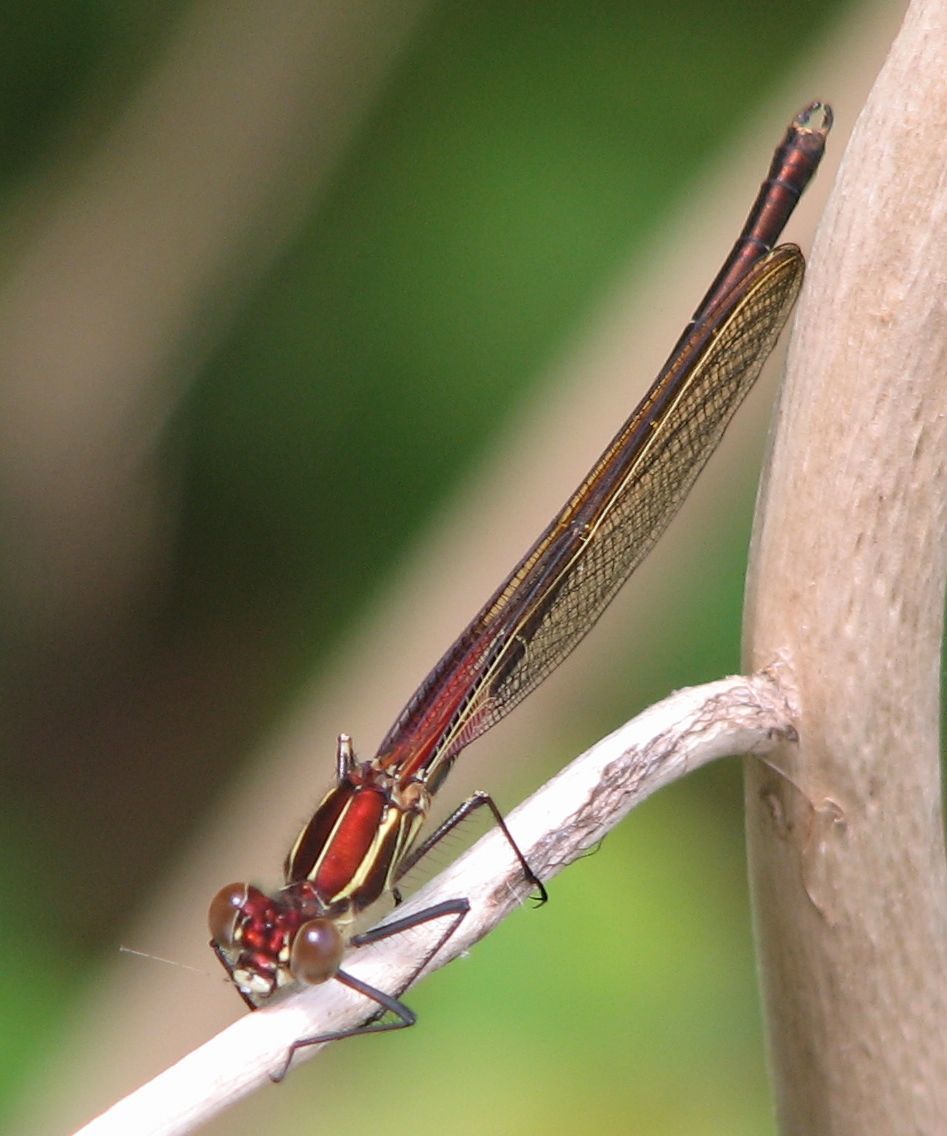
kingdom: Animalia
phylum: Arthropoda
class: Insecta
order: Odonata
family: Calopterygidae
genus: Hetaerina
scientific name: Hetaerina americana
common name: American rubyspot
